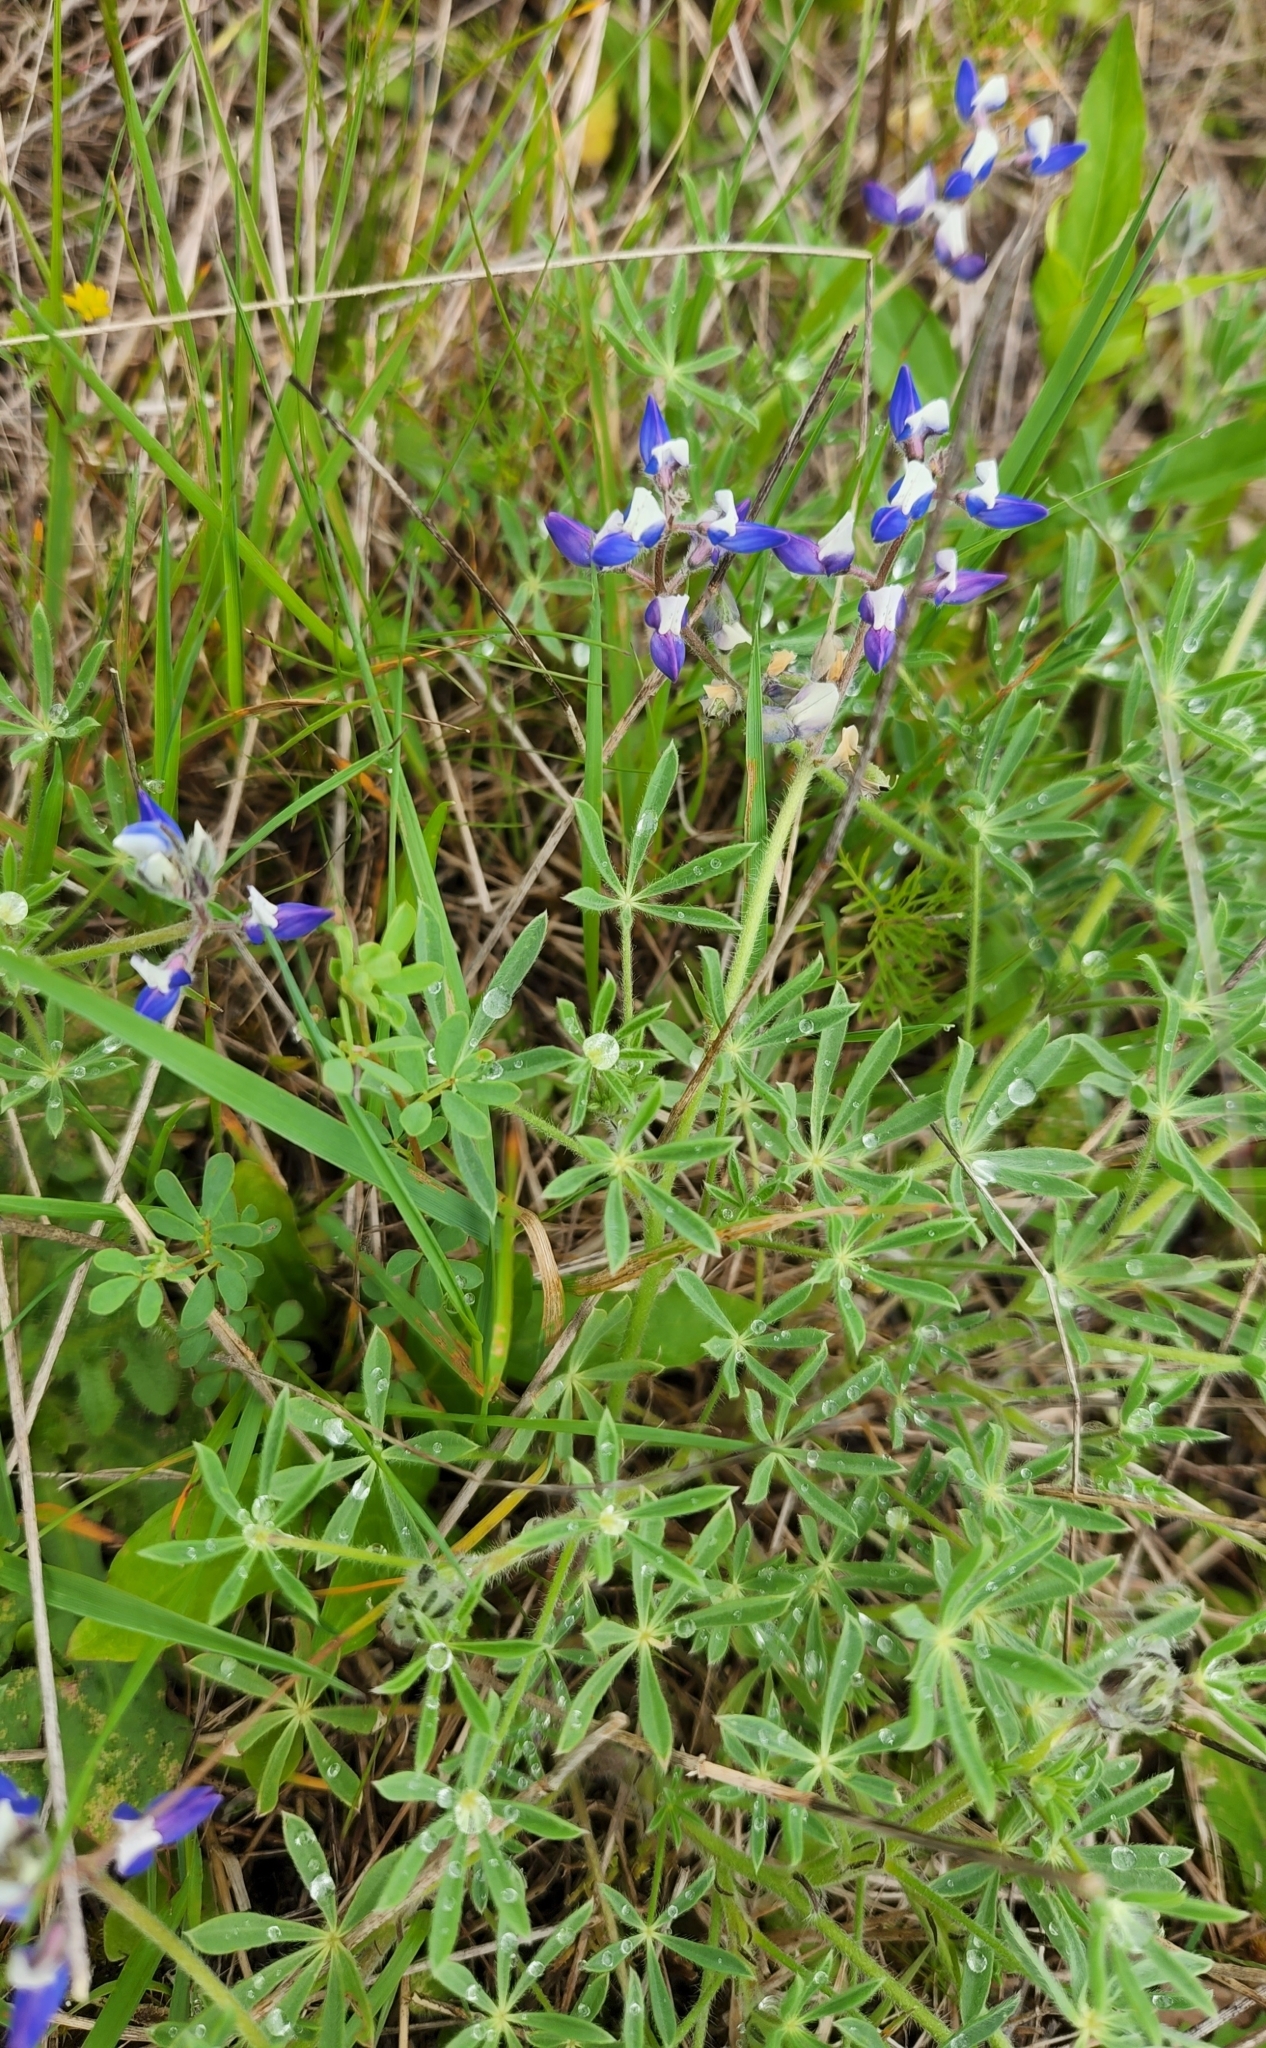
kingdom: Plantae
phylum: Tracheophyta
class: Magnoliopsida
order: Fabales
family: Fabaceae
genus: Lupinus
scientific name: Lupinus bicolor
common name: Miniature lupine
